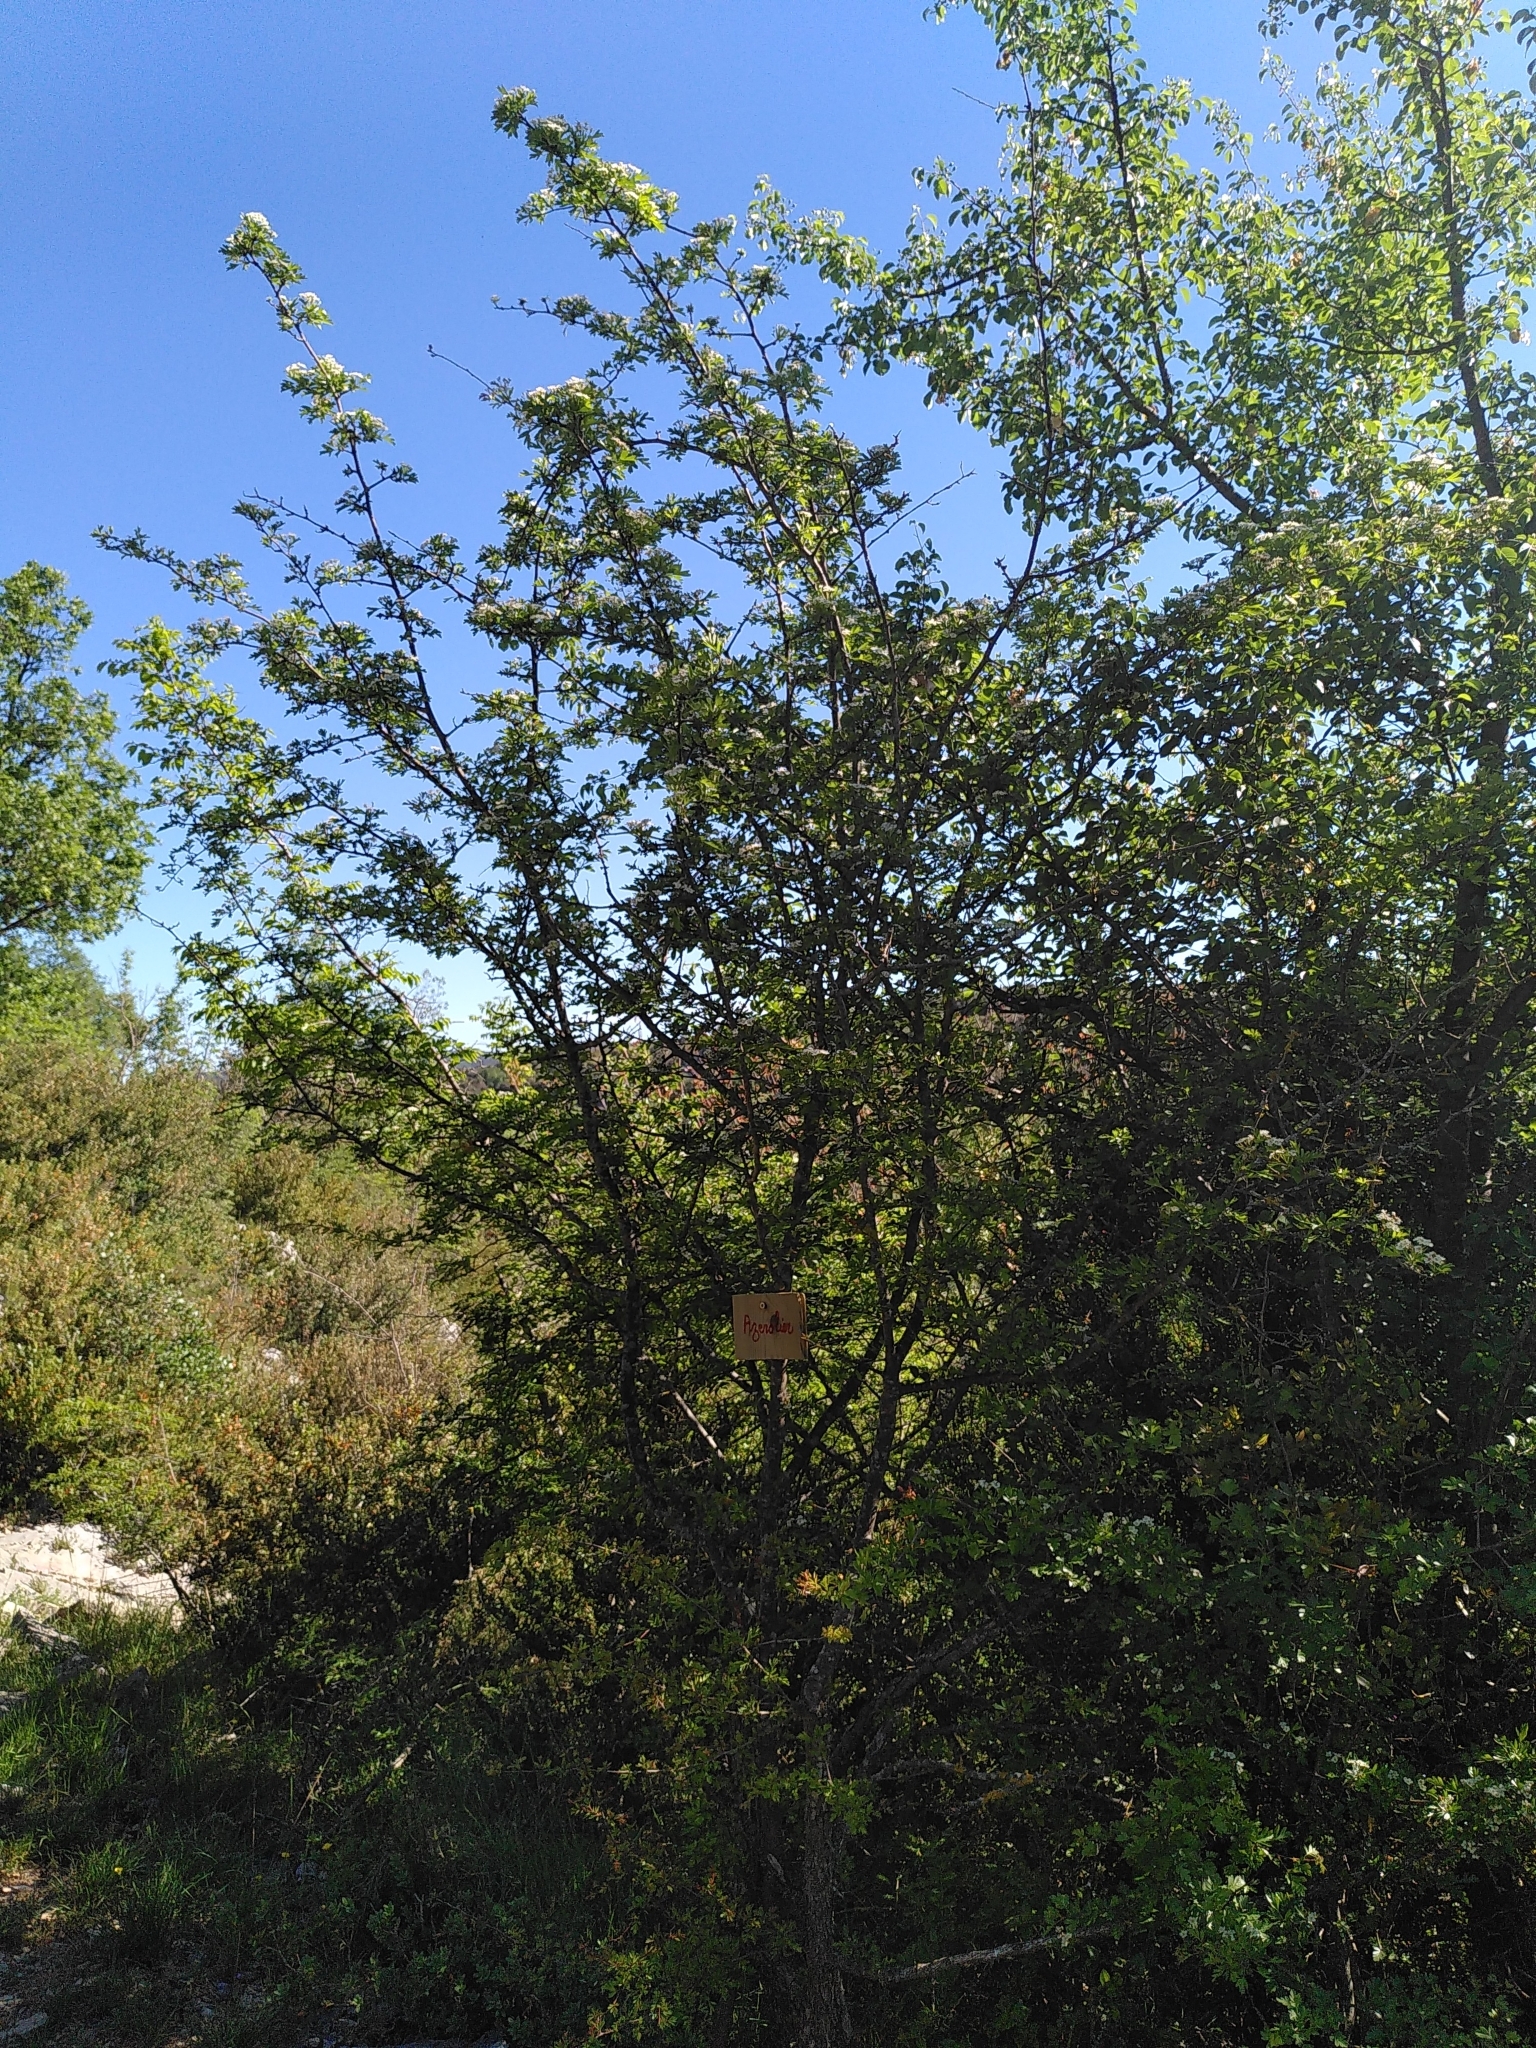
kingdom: Plantae
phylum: Tracheophyta
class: Magnoliopsida
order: Rosales
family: Rosaceae
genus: Crataegus
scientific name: Crataegus monogyna
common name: Hawthorn
